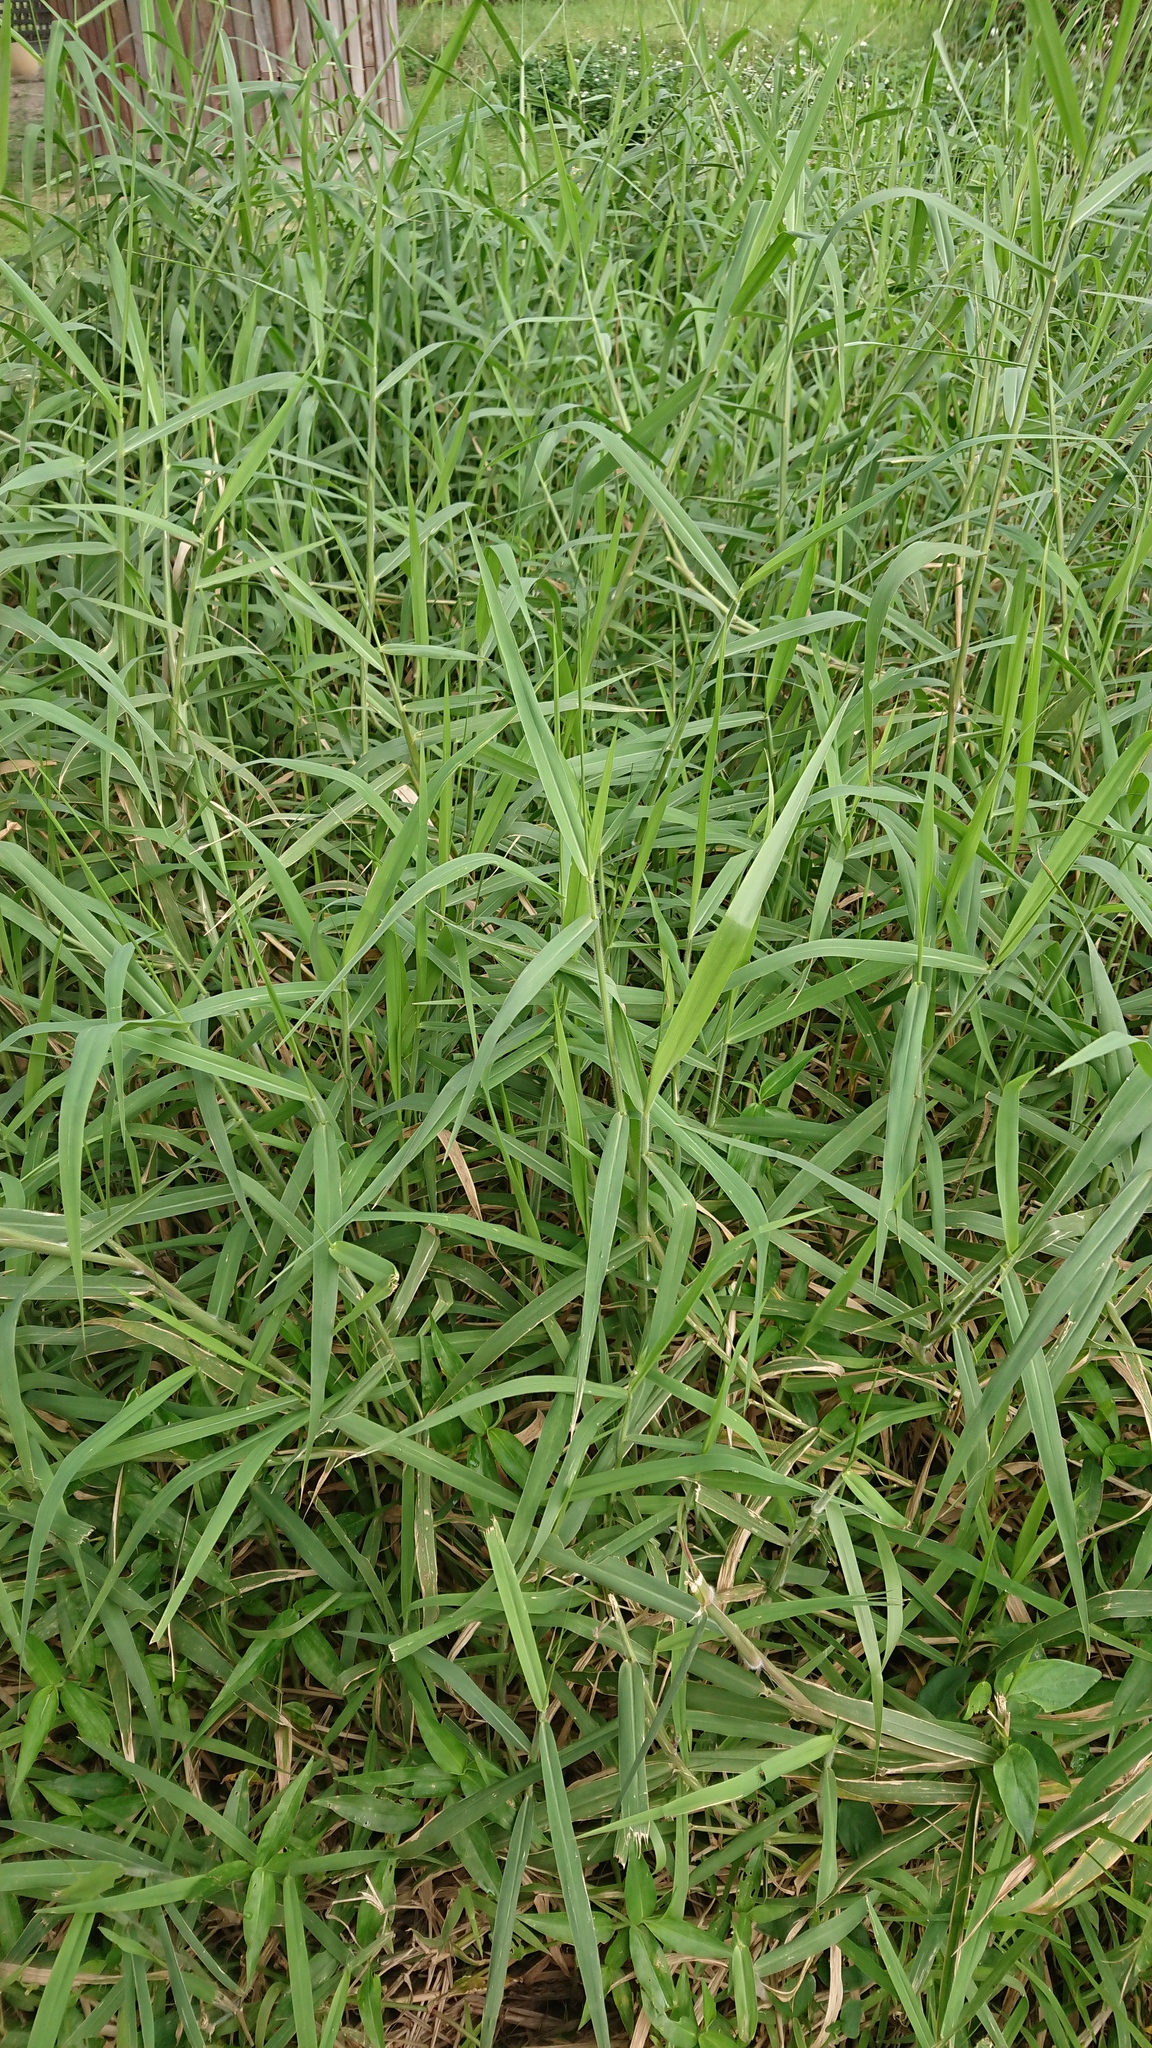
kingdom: Plantae
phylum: Tracheophyta
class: Liliopsida
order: Poales
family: Poaceae
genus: Urochloa
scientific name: Urochloa mutica
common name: Para grass
